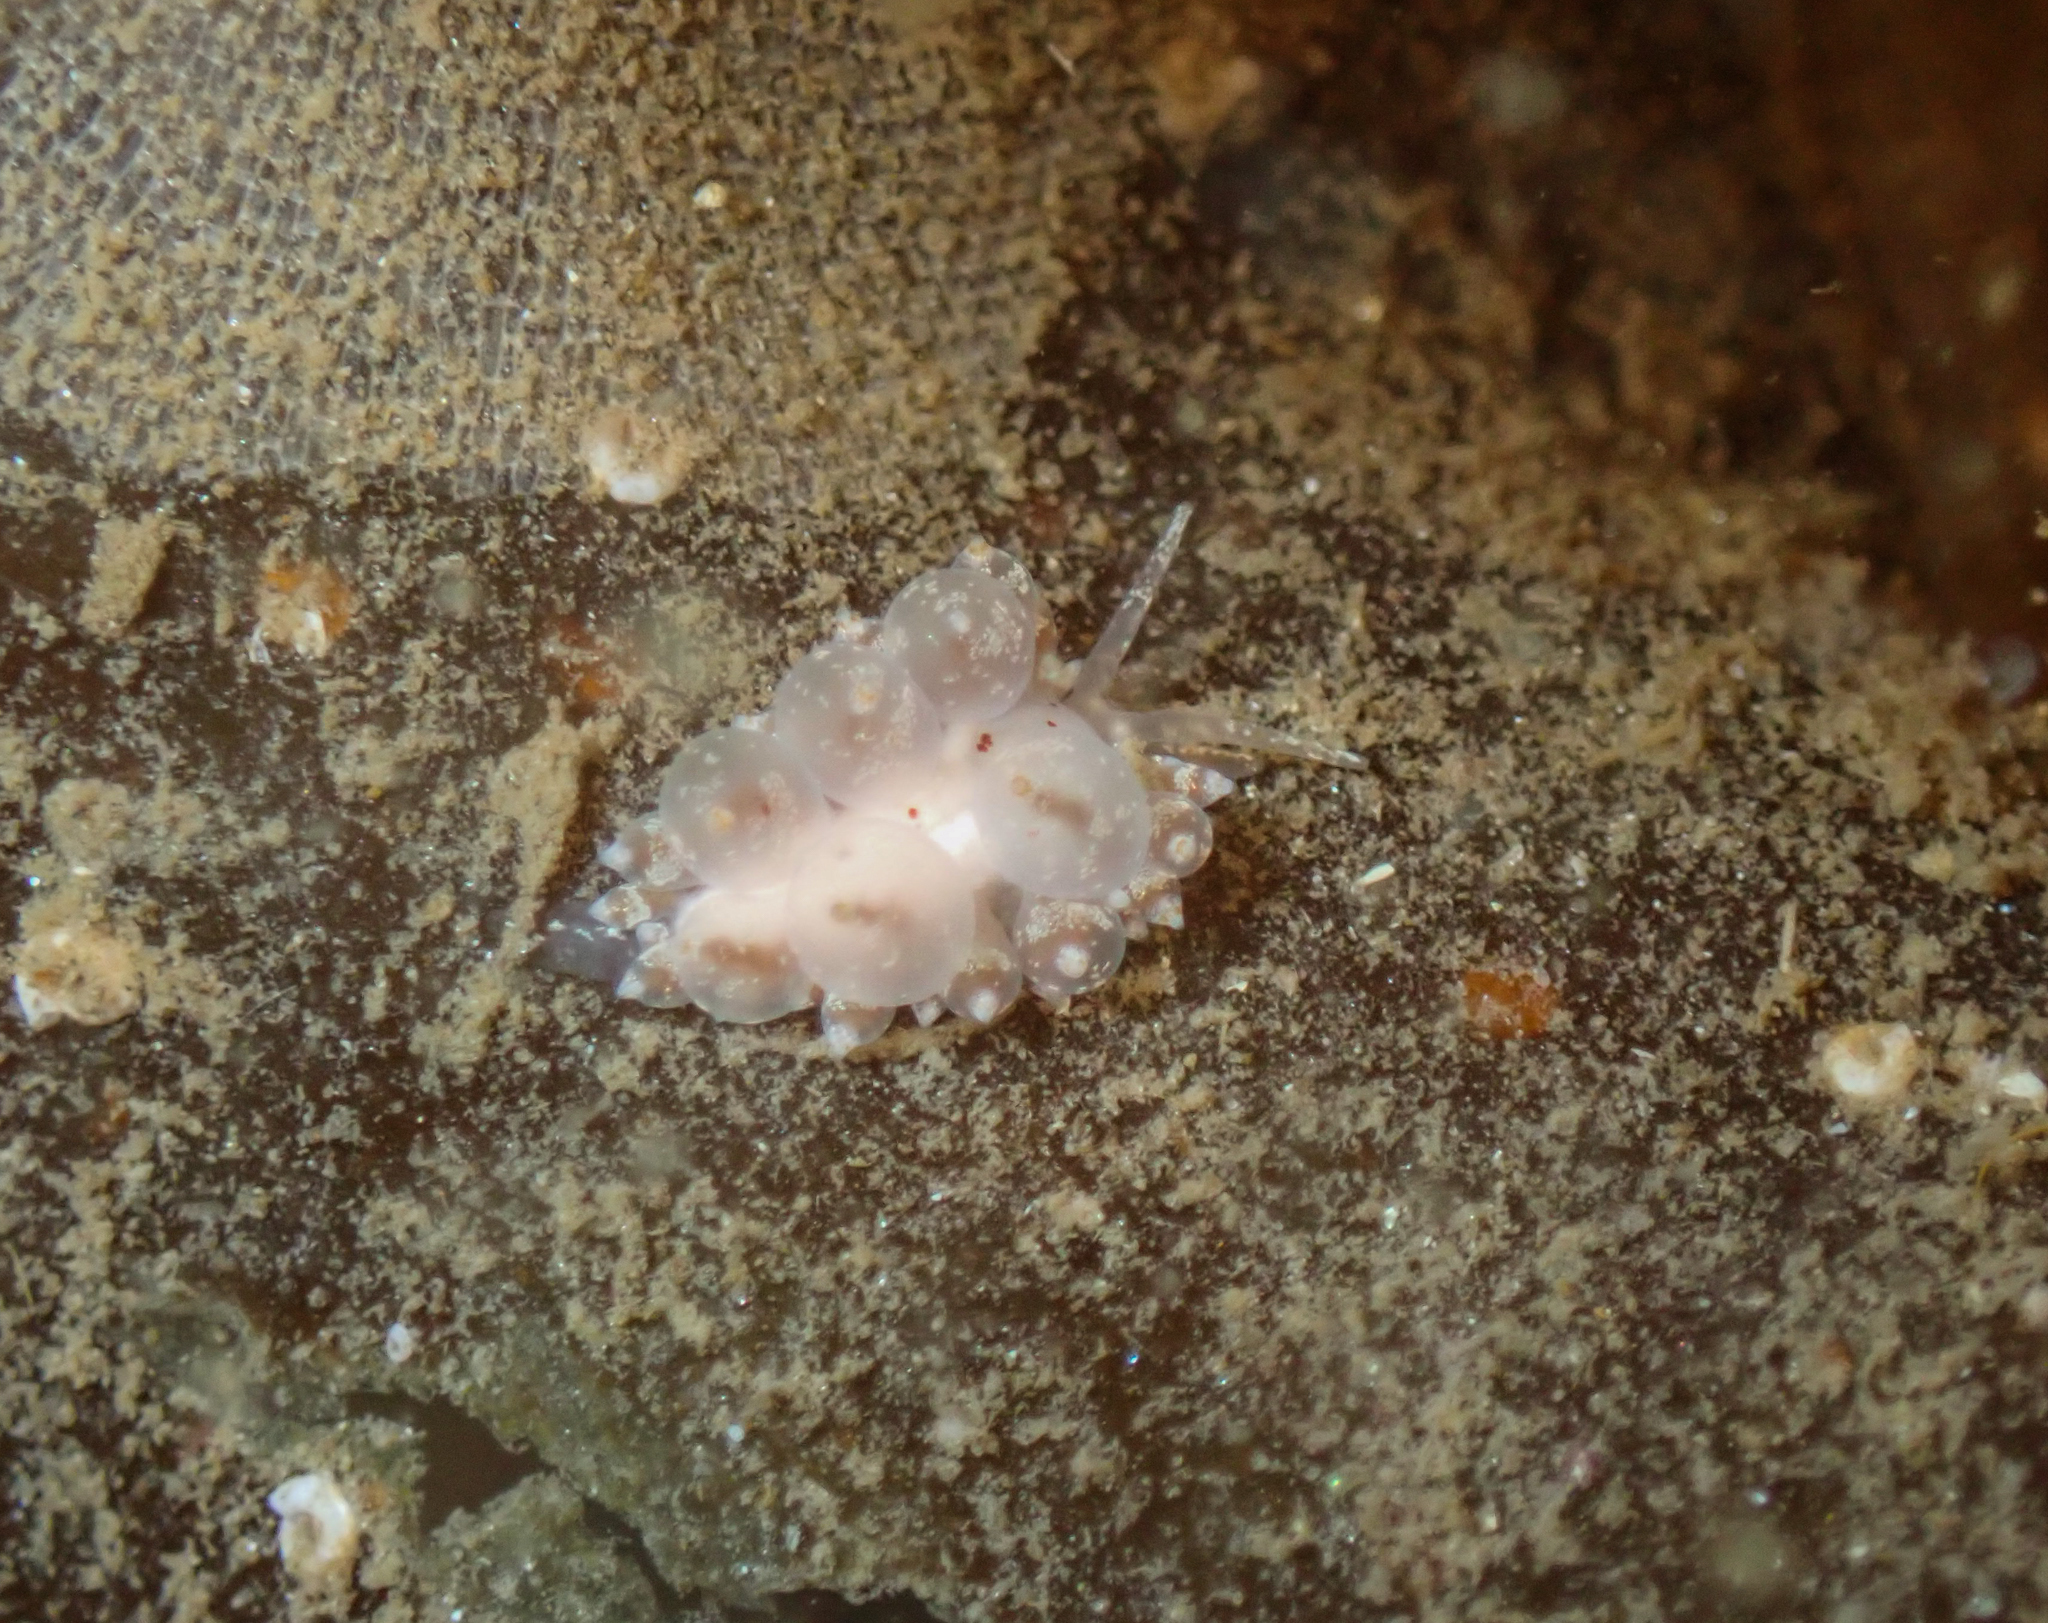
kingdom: Animalia
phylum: Mollusca
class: Gastropoda
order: Nudibranchia
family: Eubranchidae
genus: Amphorina
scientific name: Amphorina pallida
